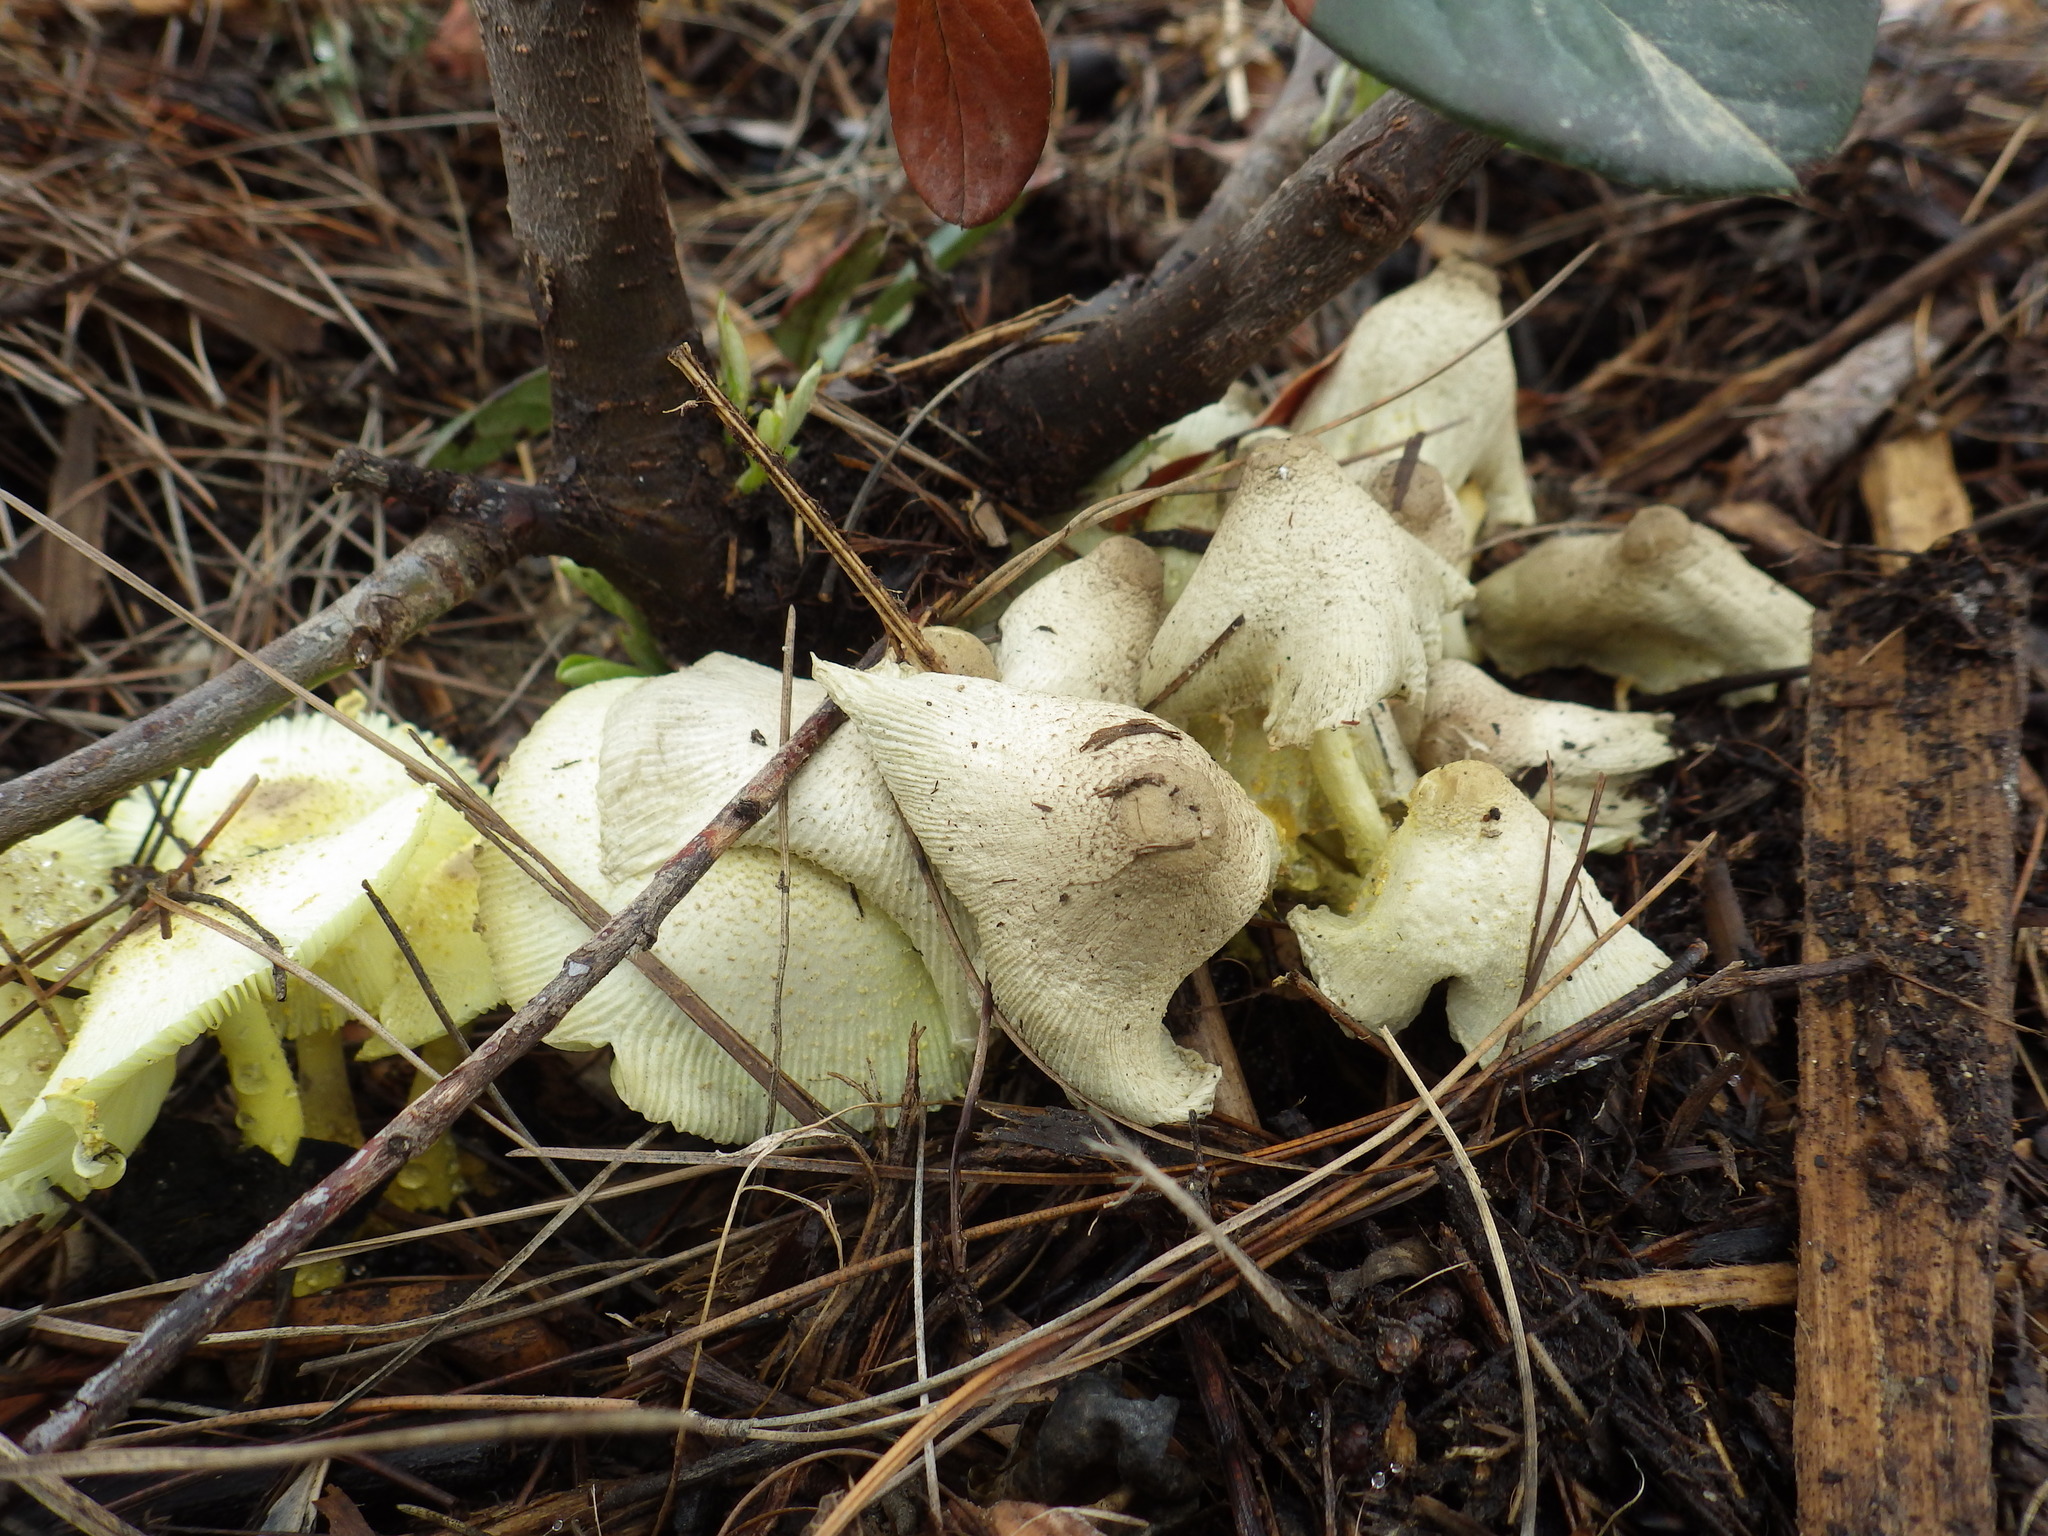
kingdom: Fungi
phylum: Basidiomycota
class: Agaricomycetes
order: Agaricales
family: Agaricaceae
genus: Leucocoprinus
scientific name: Leucocoprinus birnbaumii
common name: Plantpot dapperling
